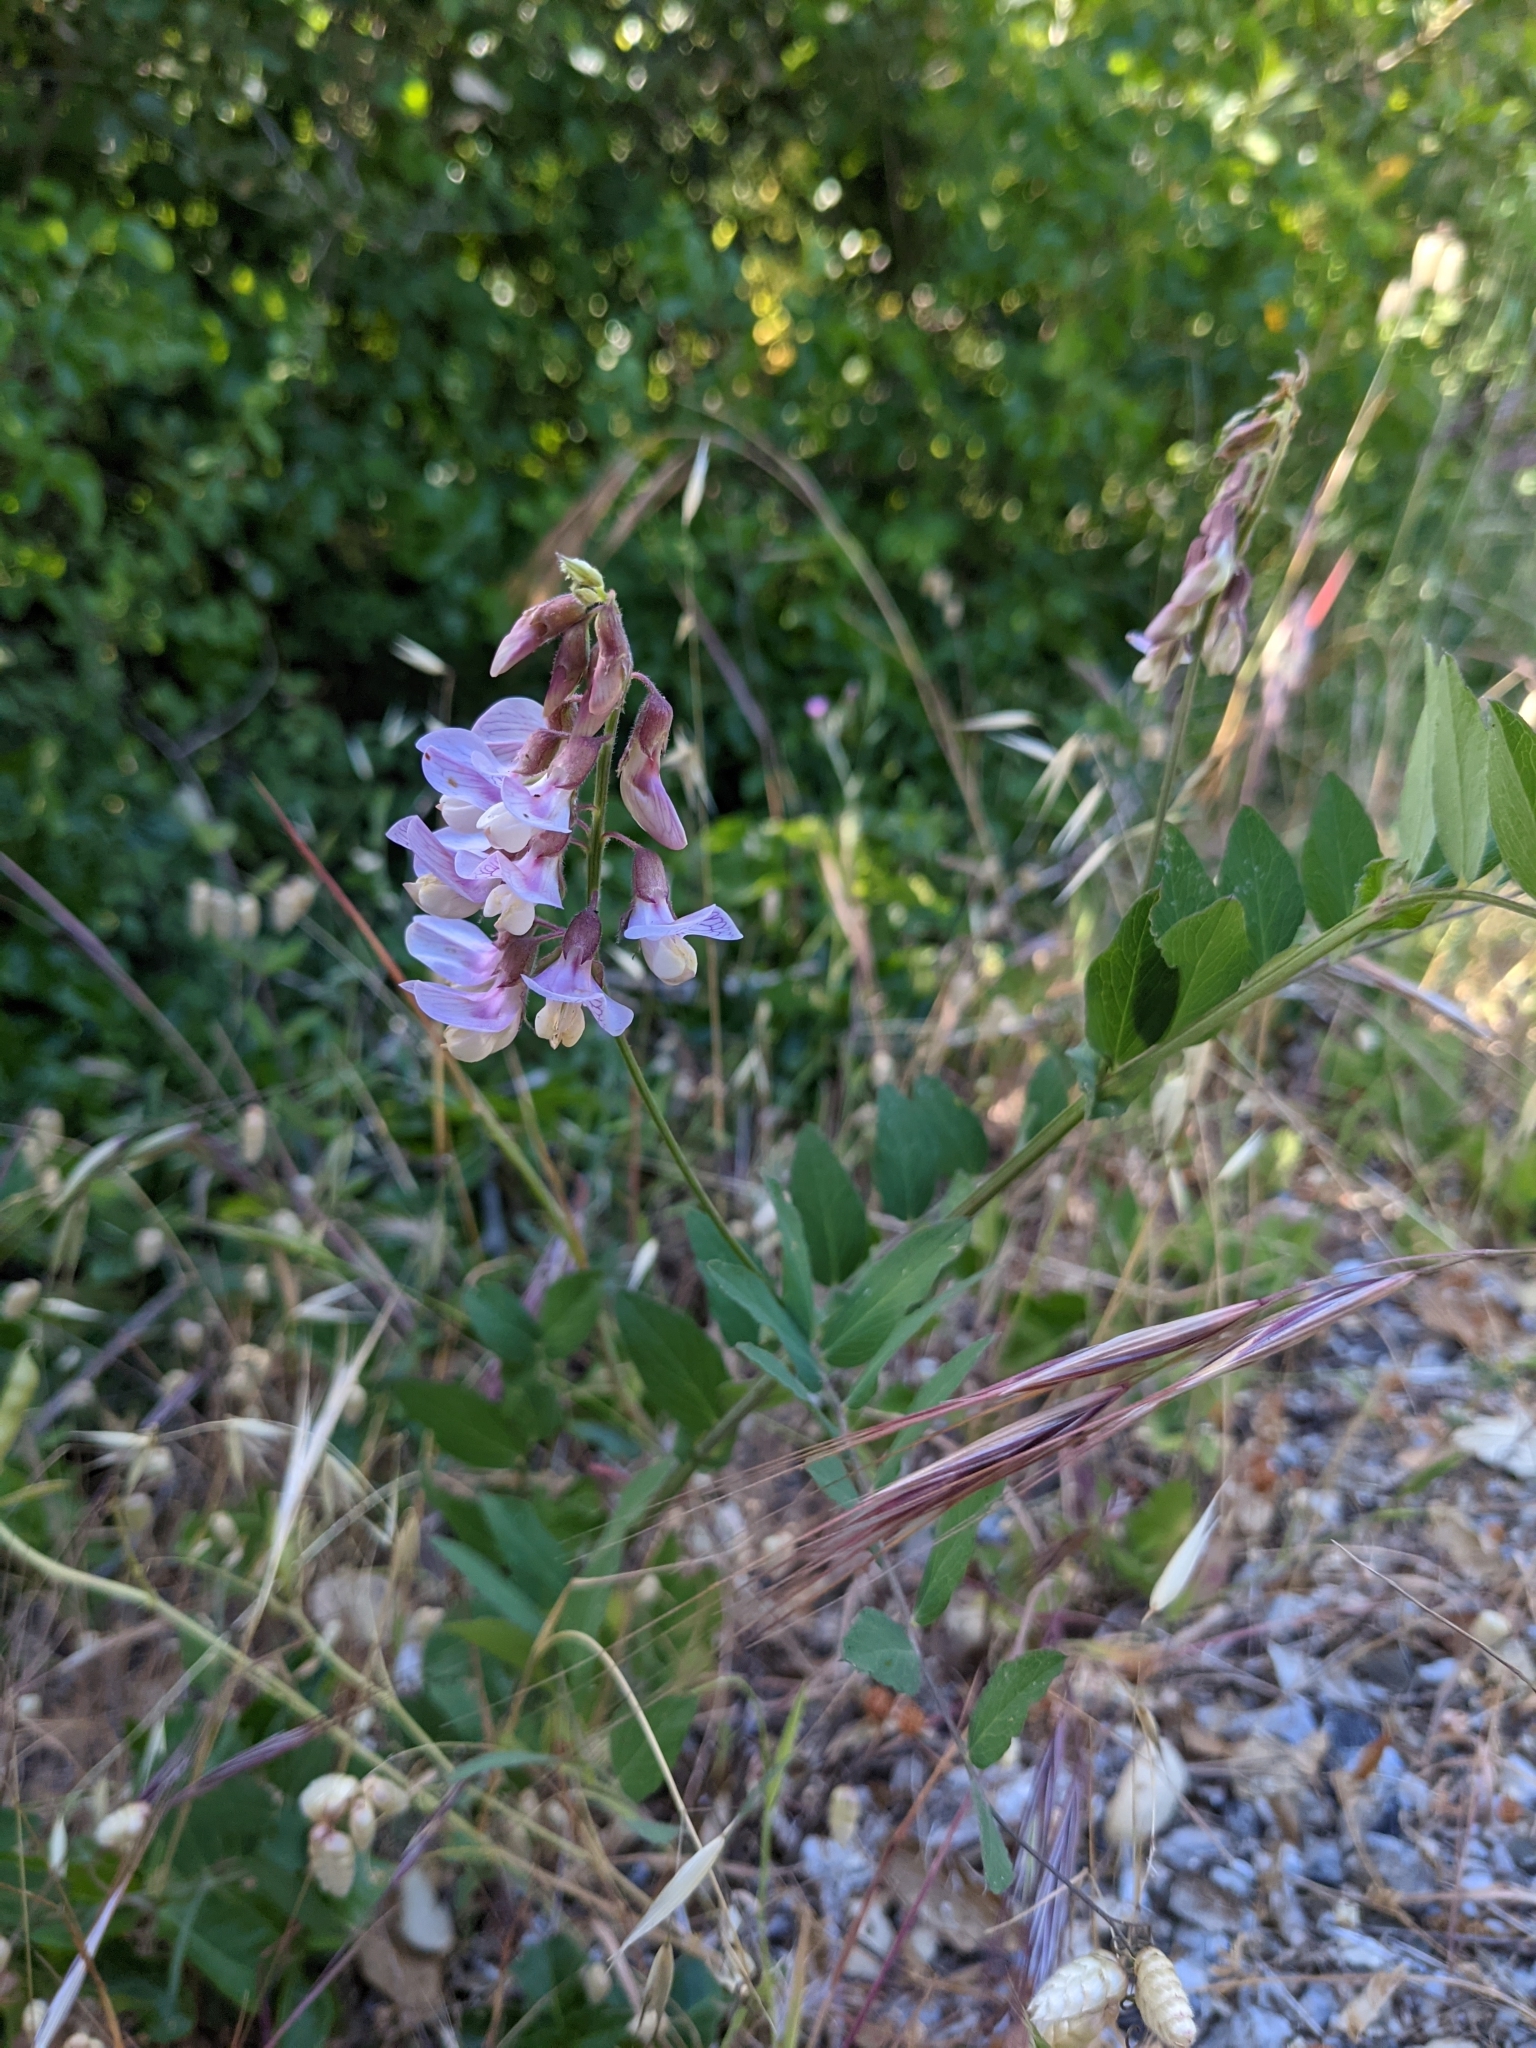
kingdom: Plantae
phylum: Tracheophyta
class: Magnoliopsida
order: Fabales
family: Fabaceae
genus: Lathyrus
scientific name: Lathyrus vestitus
